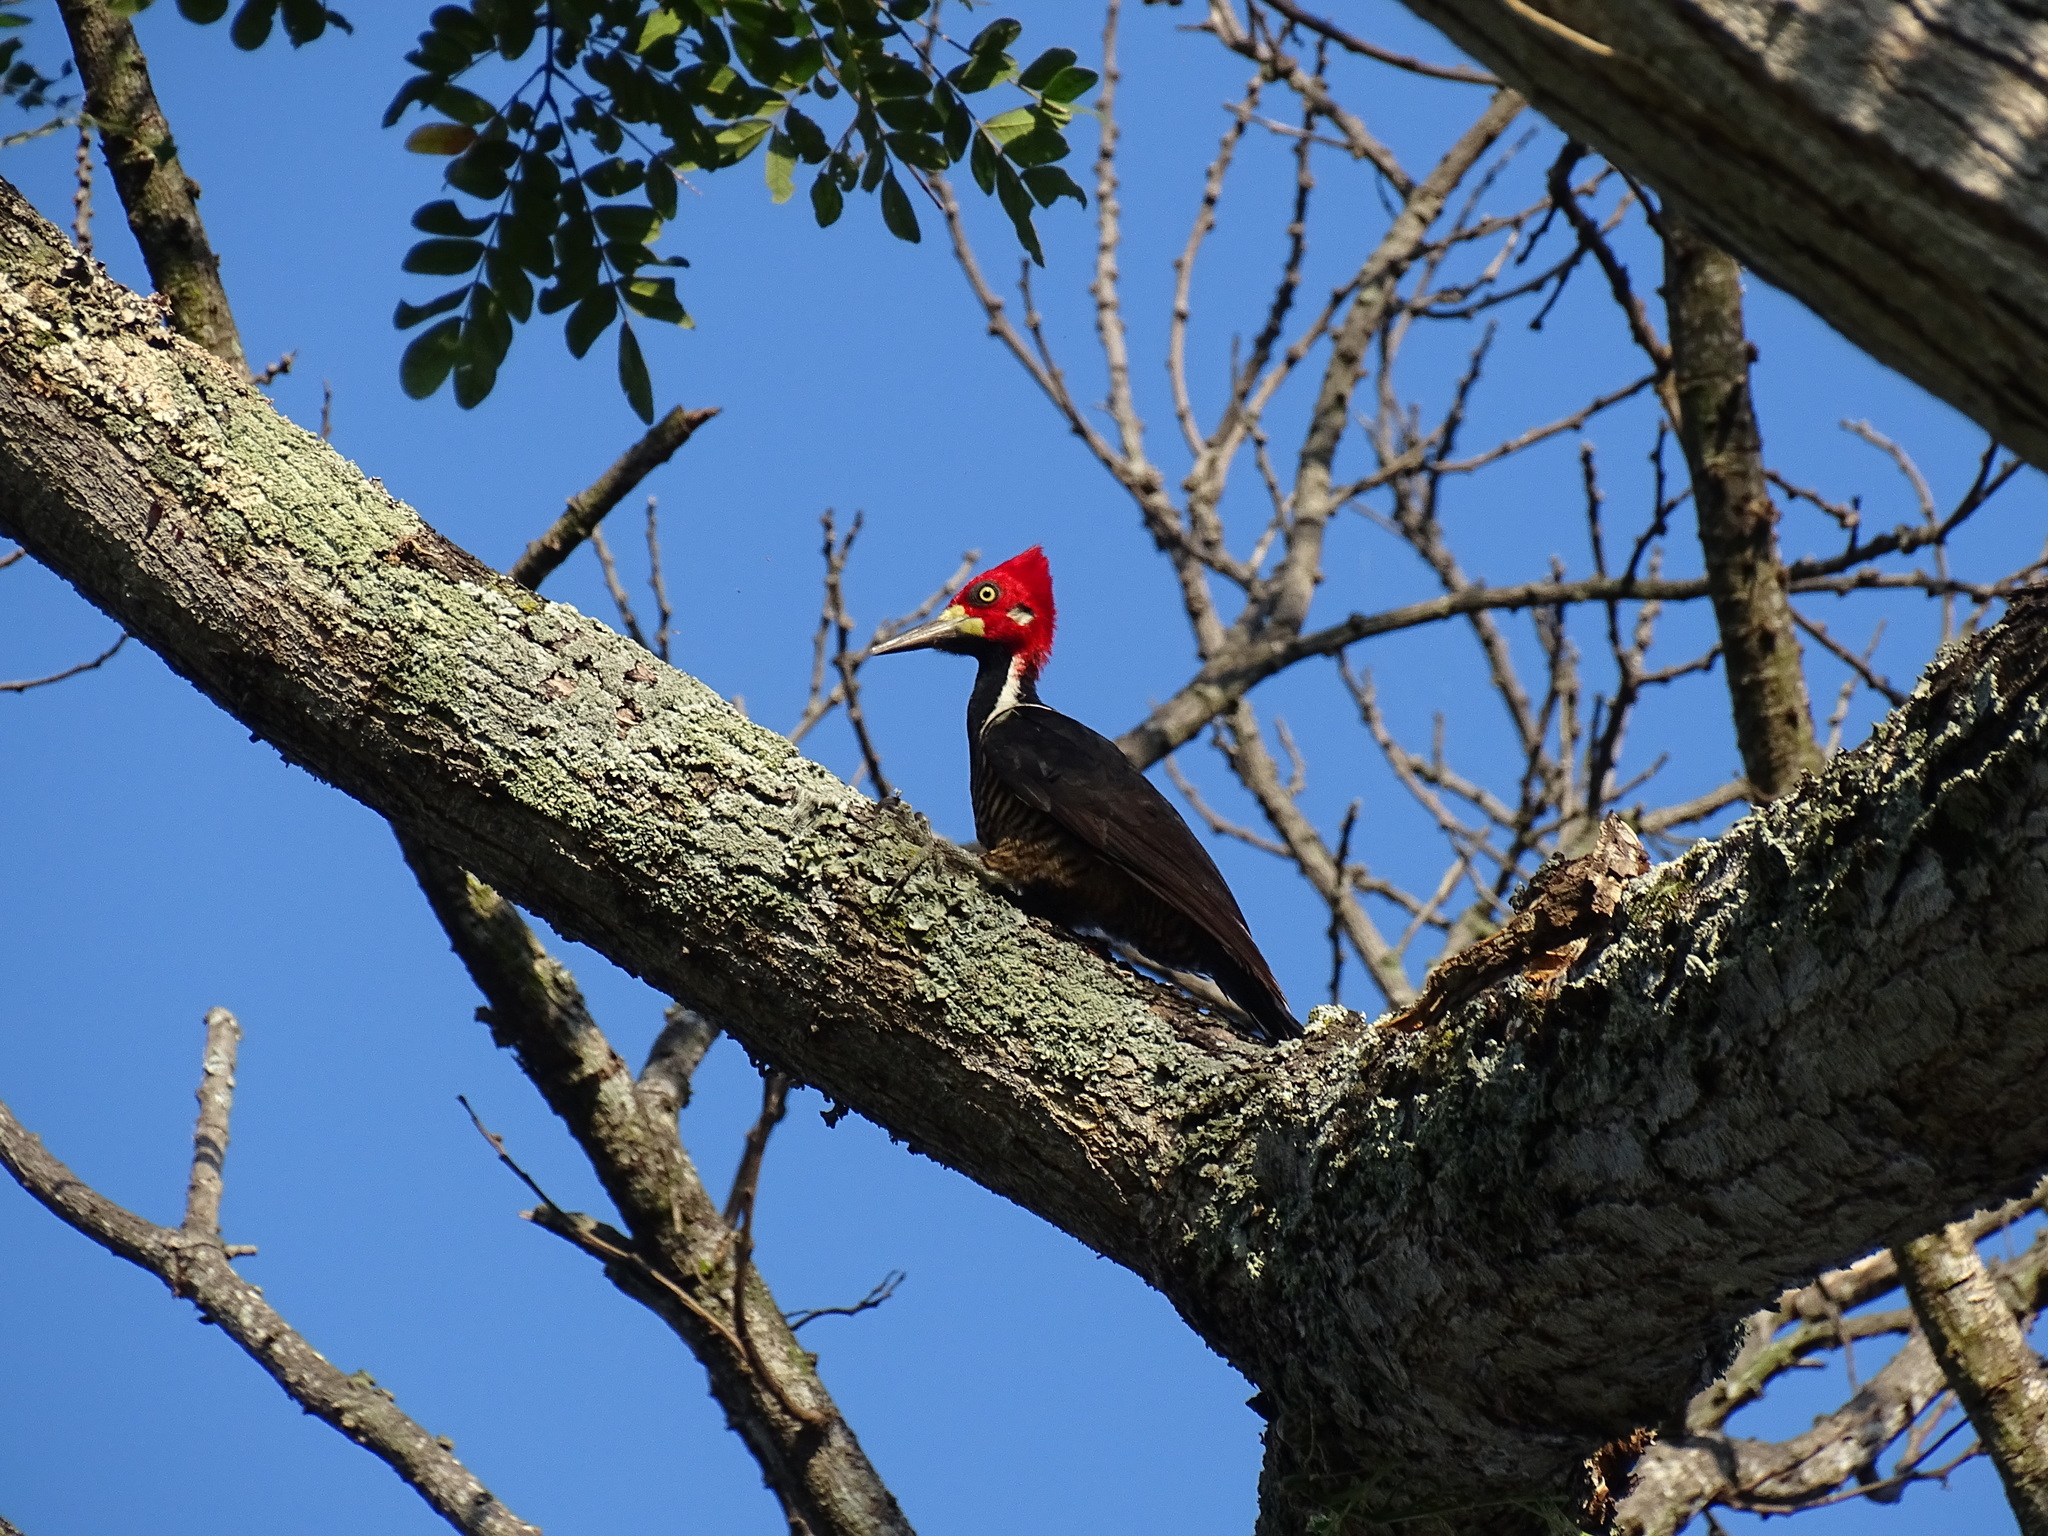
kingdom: Animalia
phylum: Chordata
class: Aves
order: Piciformes
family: Picidae
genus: Campephilus
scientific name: Campephilus melanoleucos
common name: Crimson-crested woodpecker
